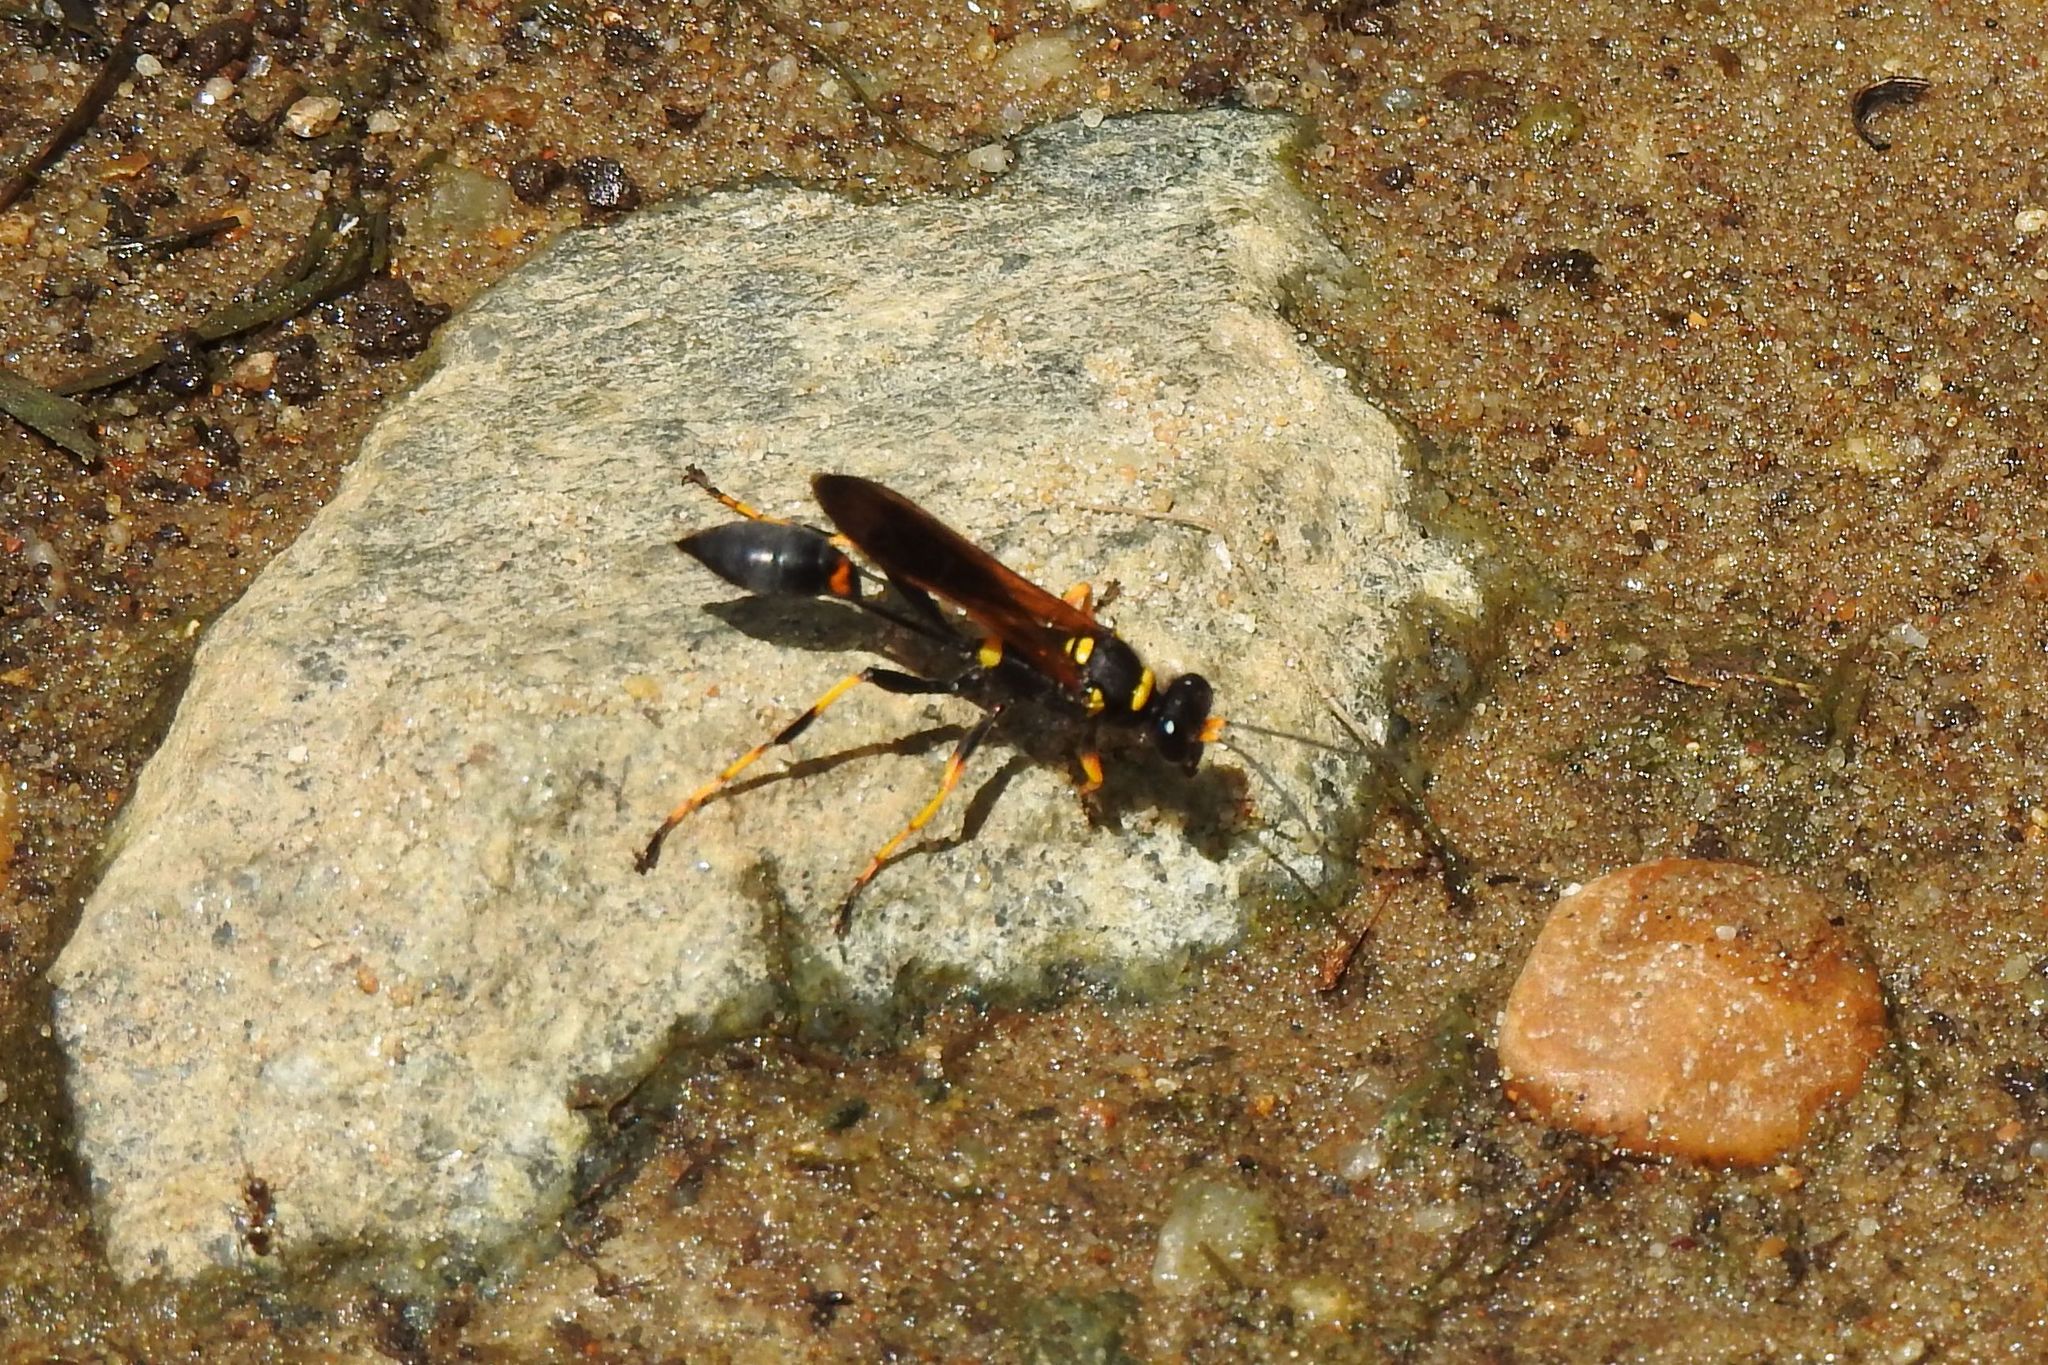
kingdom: Animalia
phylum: Arthropoda
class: Insecta
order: Hymenoptera
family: Sphecidae
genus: Sceliphron
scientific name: Sceliphron caementarium
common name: Mud dauber
